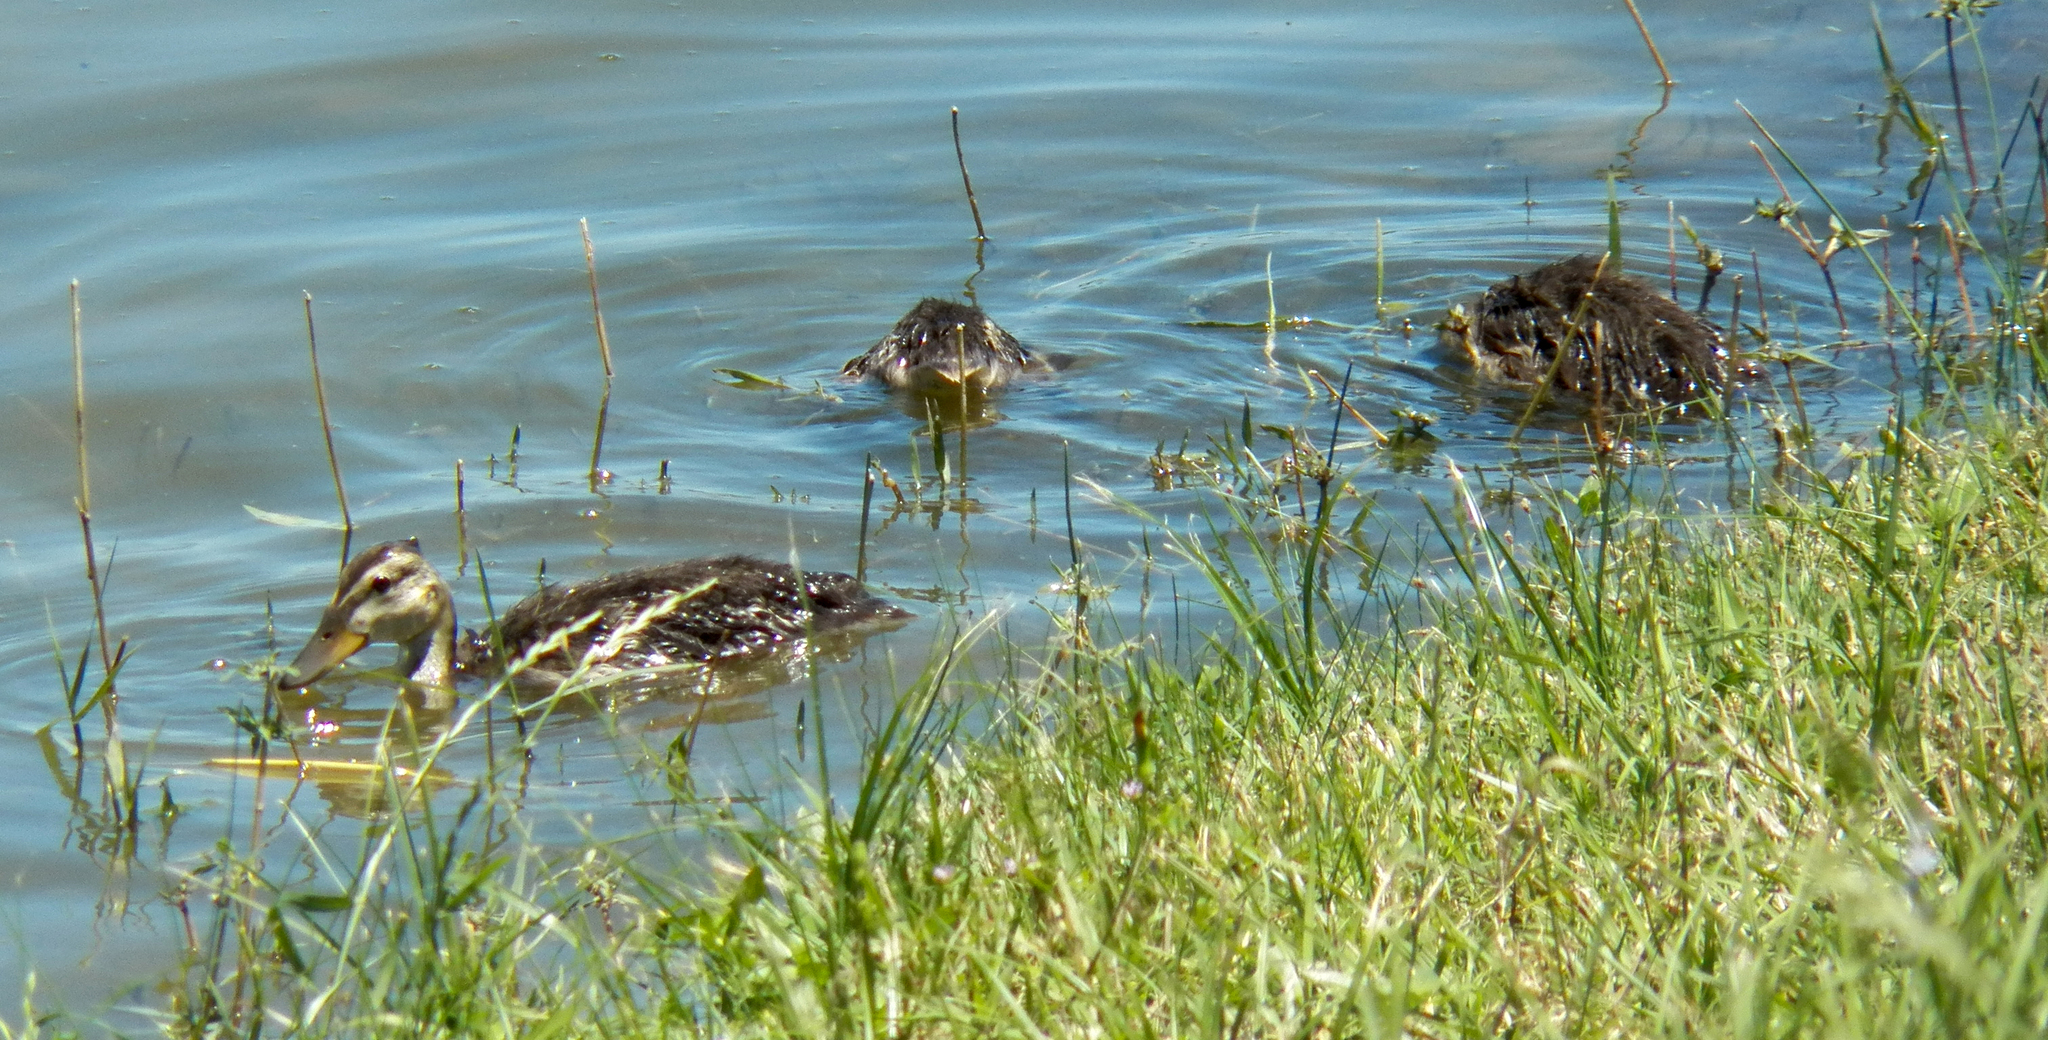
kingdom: Animalia
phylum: Chordata
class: Aves
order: Anseriformes
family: Anatidae
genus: Anas
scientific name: Anas platyrhynchos
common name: Mallard
